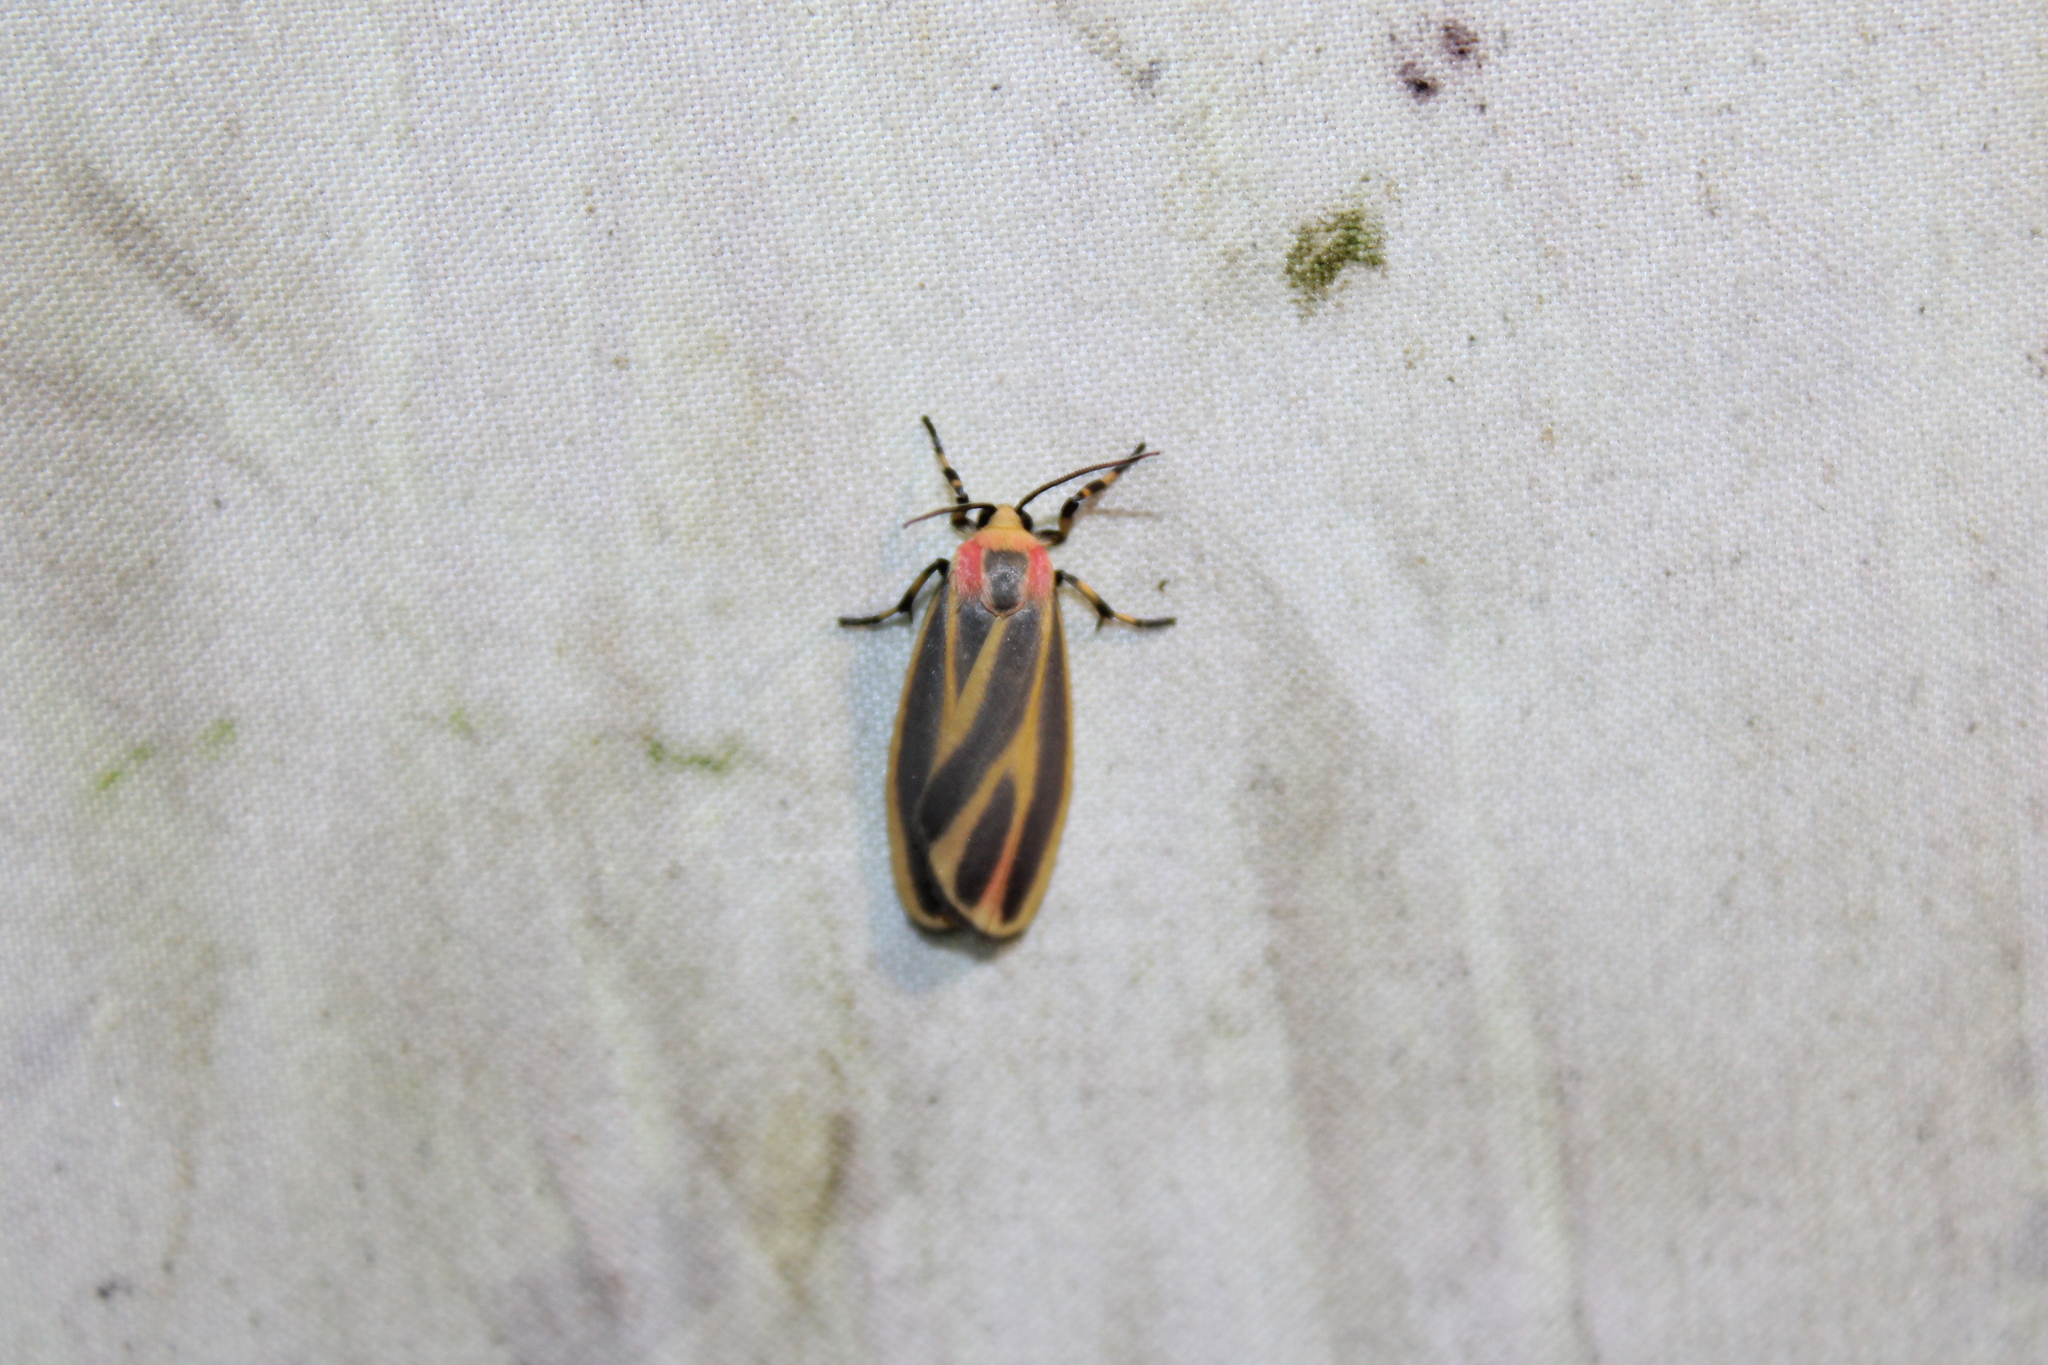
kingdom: Animalia
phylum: Arthropoda
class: Insecta
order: Lepidoptera
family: Erebidae
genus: Hypoprepia
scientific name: Hypoprepia fucosa
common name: Painted lichen moth
